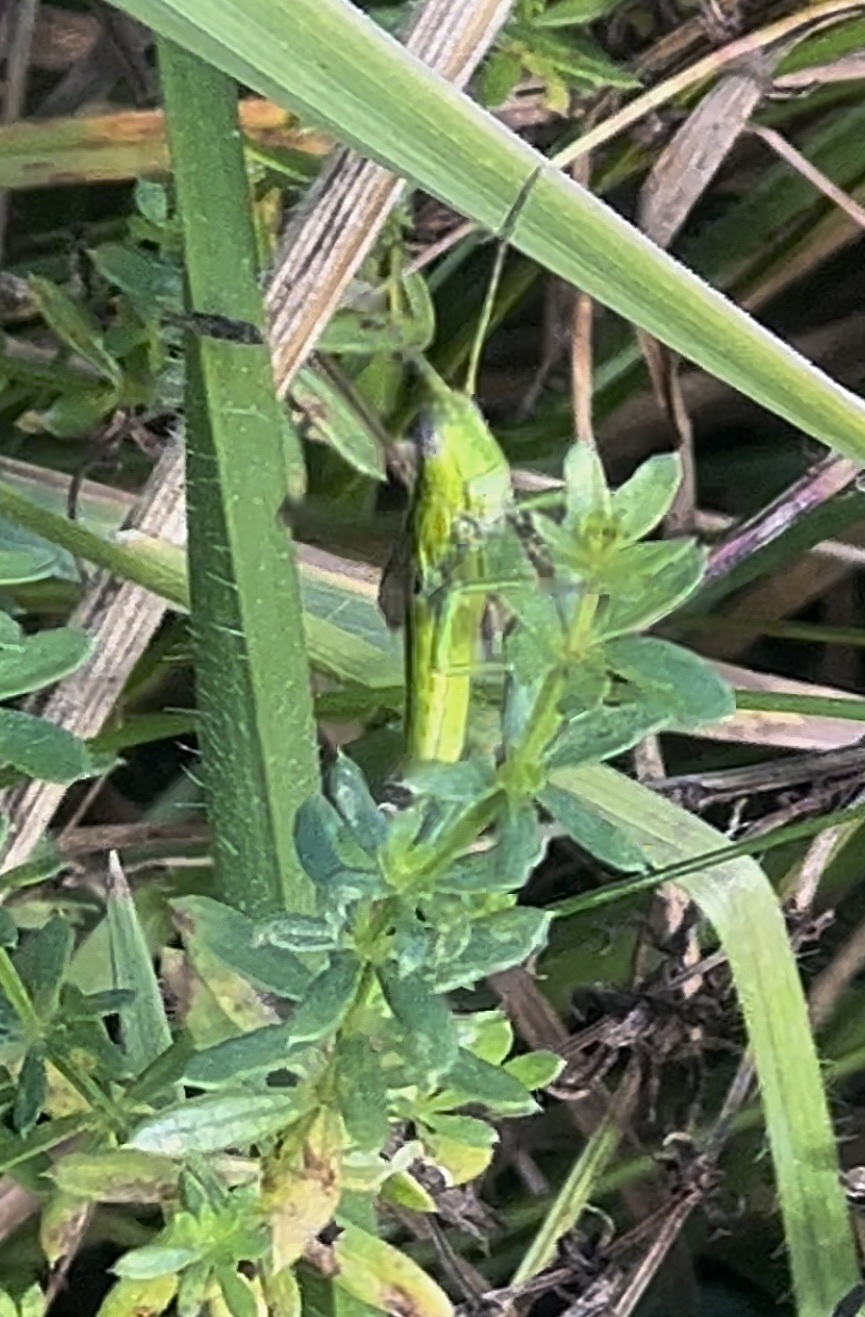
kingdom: Animalia
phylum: Arthropoda
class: Insecta
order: Orthoptera
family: Acrididae
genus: Euthystira
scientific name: Euthystira brachyptera
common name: Small gold grasshopper
